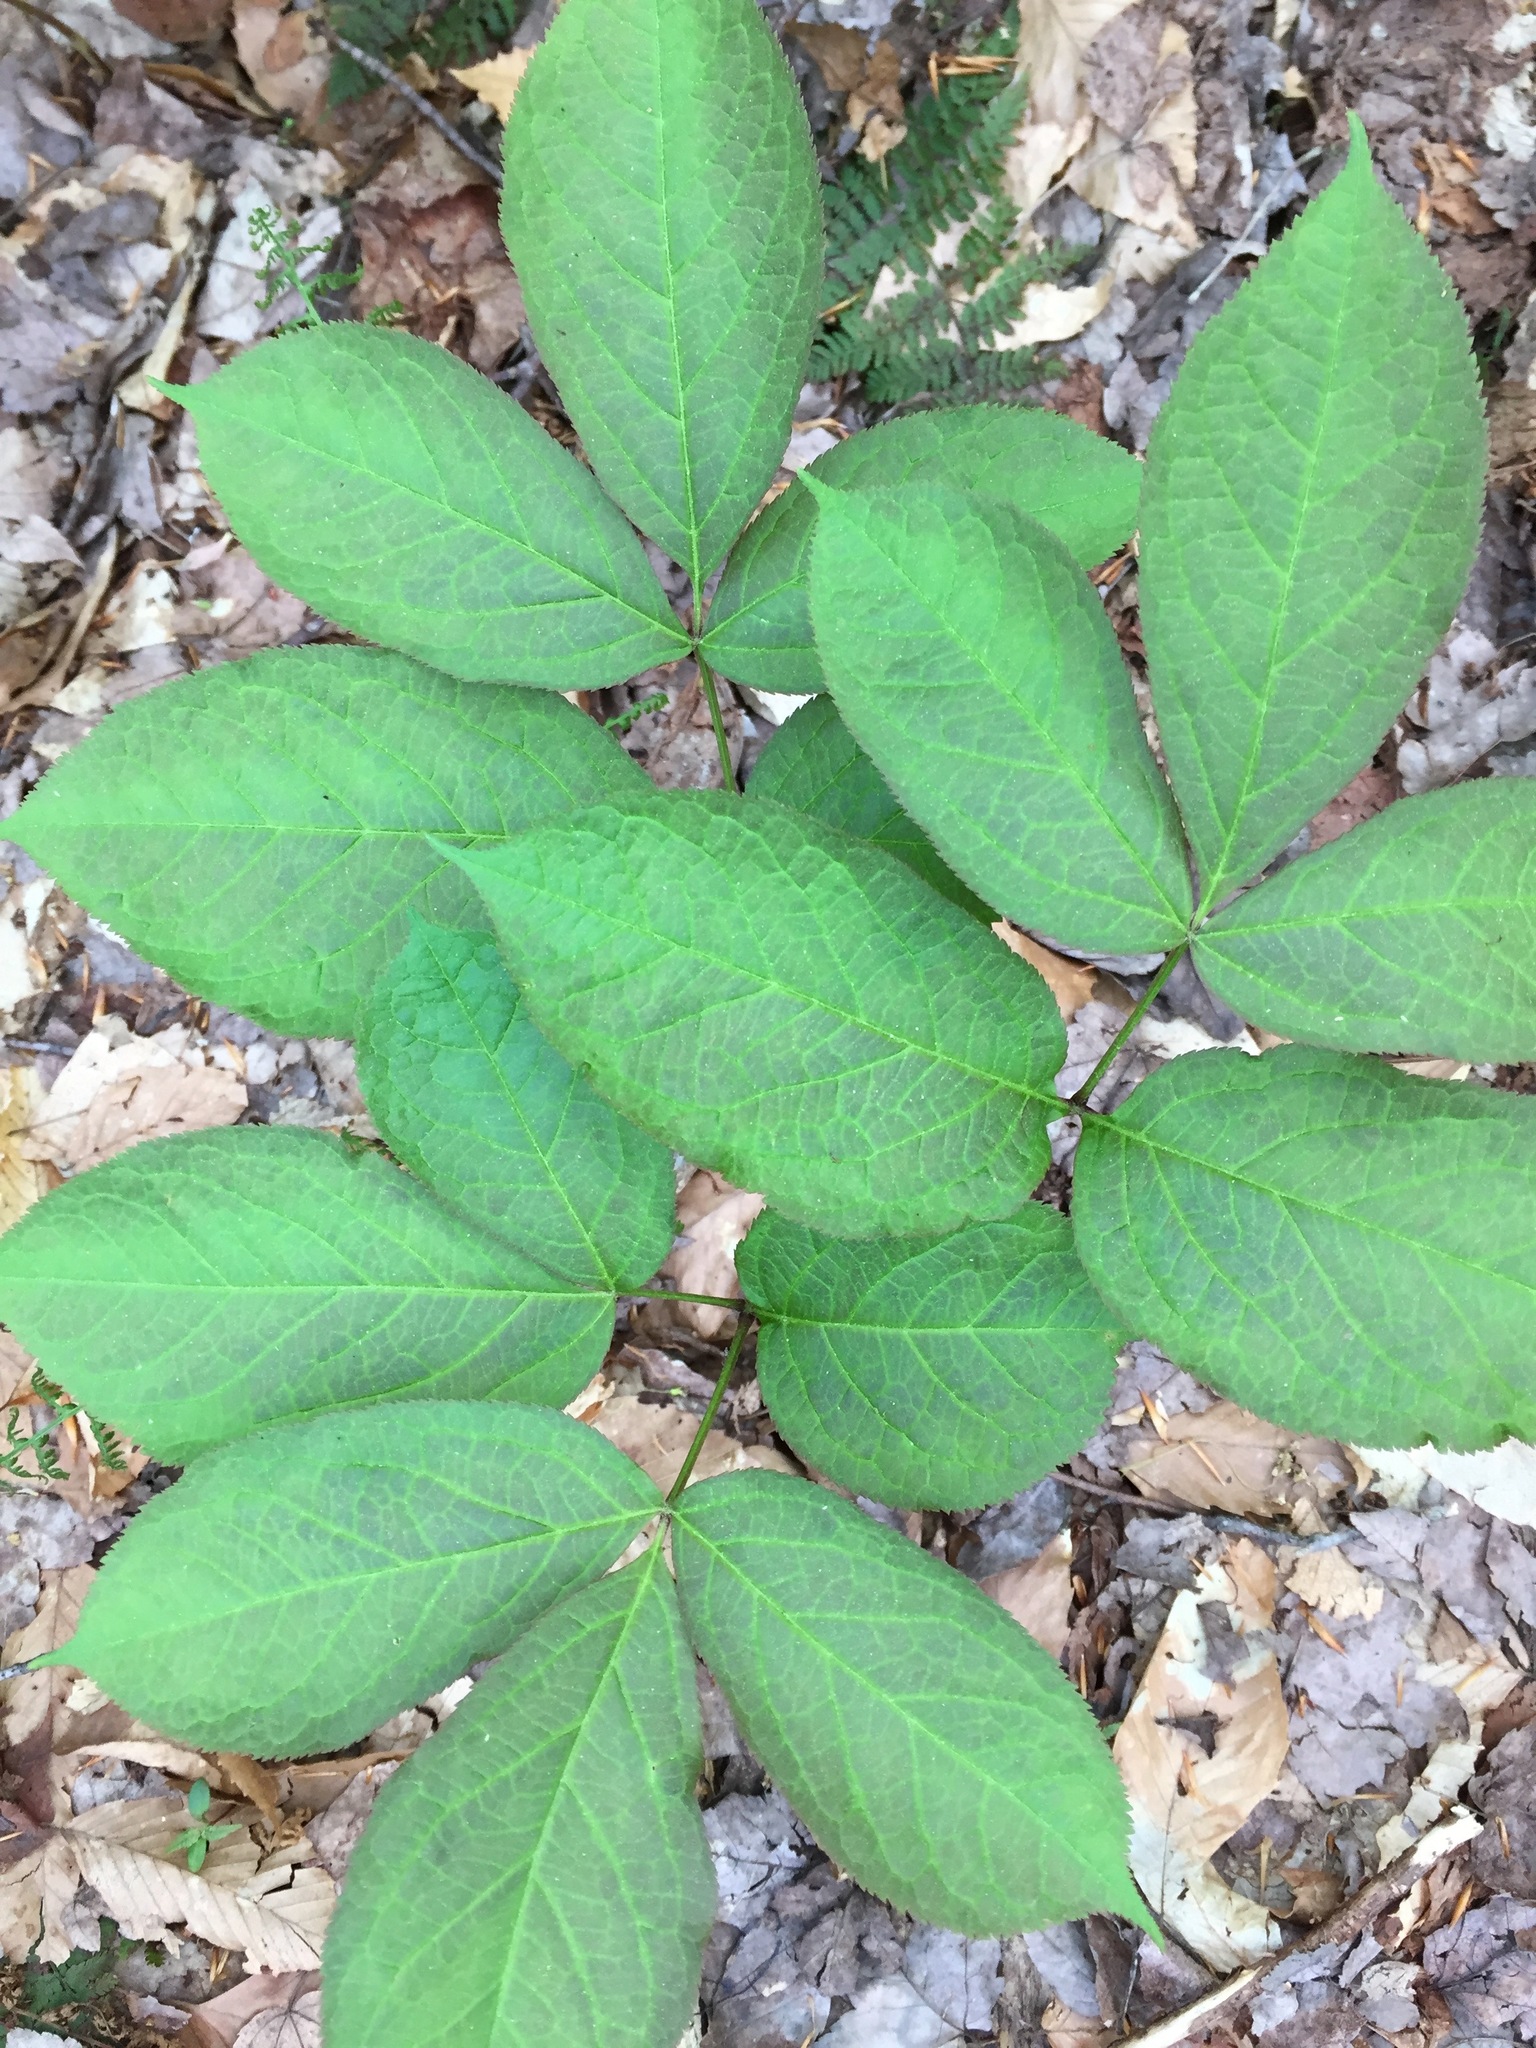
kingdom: Plantae
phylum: Tracheophyta
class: Magnoliopsida
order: Apiales
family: Araliaceae
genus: Aralia
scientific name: Aralia nudicaulis
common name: Wild sarsaparilla
